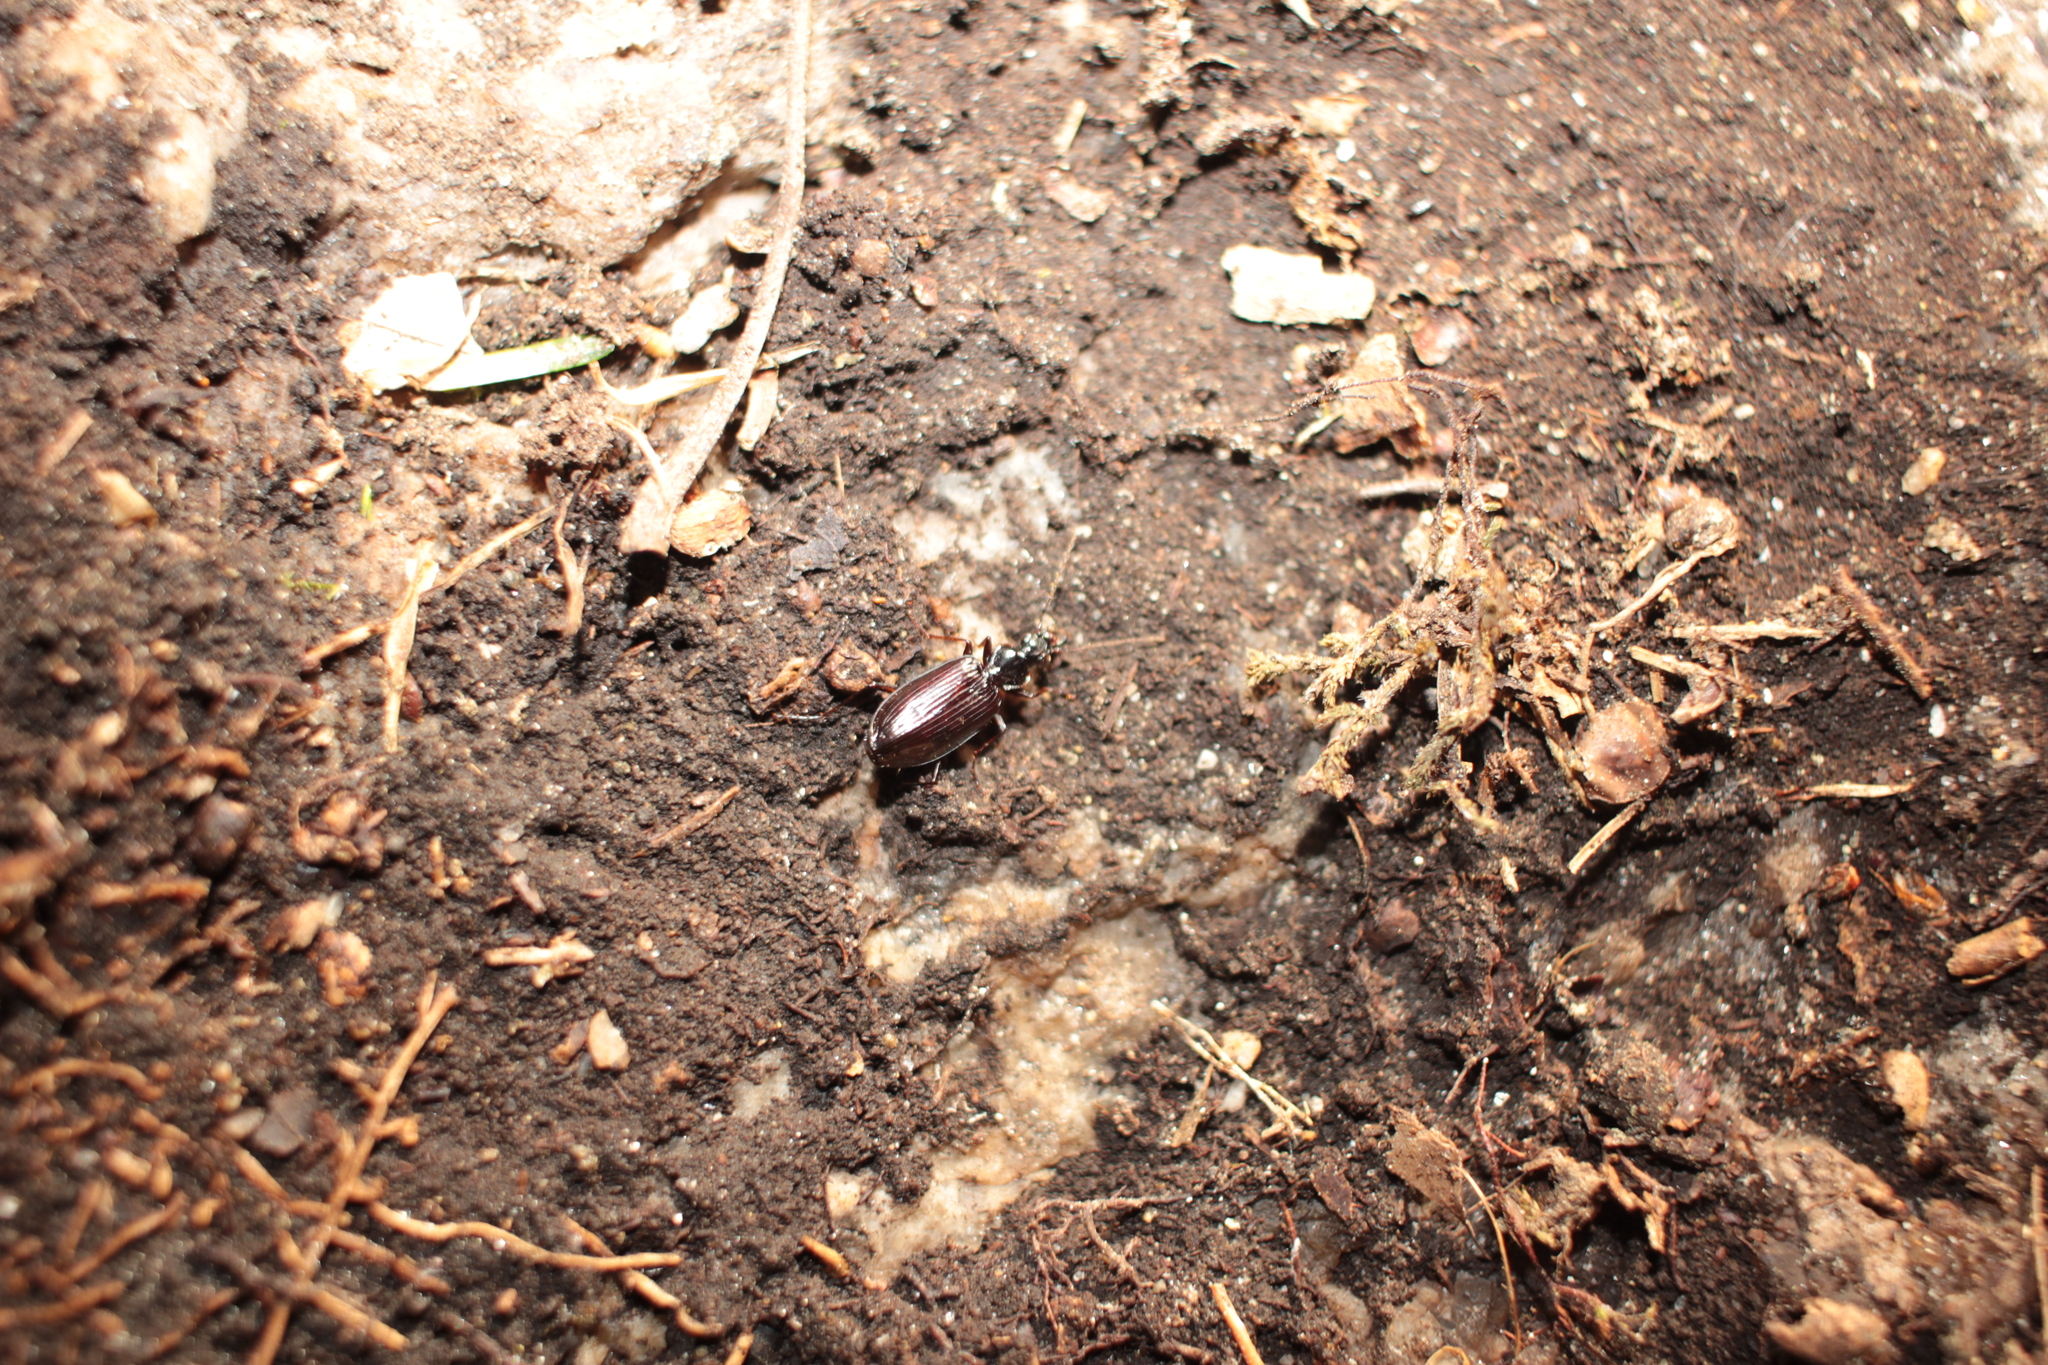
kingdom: Animalia
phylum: Arthropoda
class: Insecta
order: Coleoptera
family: Carabidae
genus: Platynus
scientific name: Platynus
